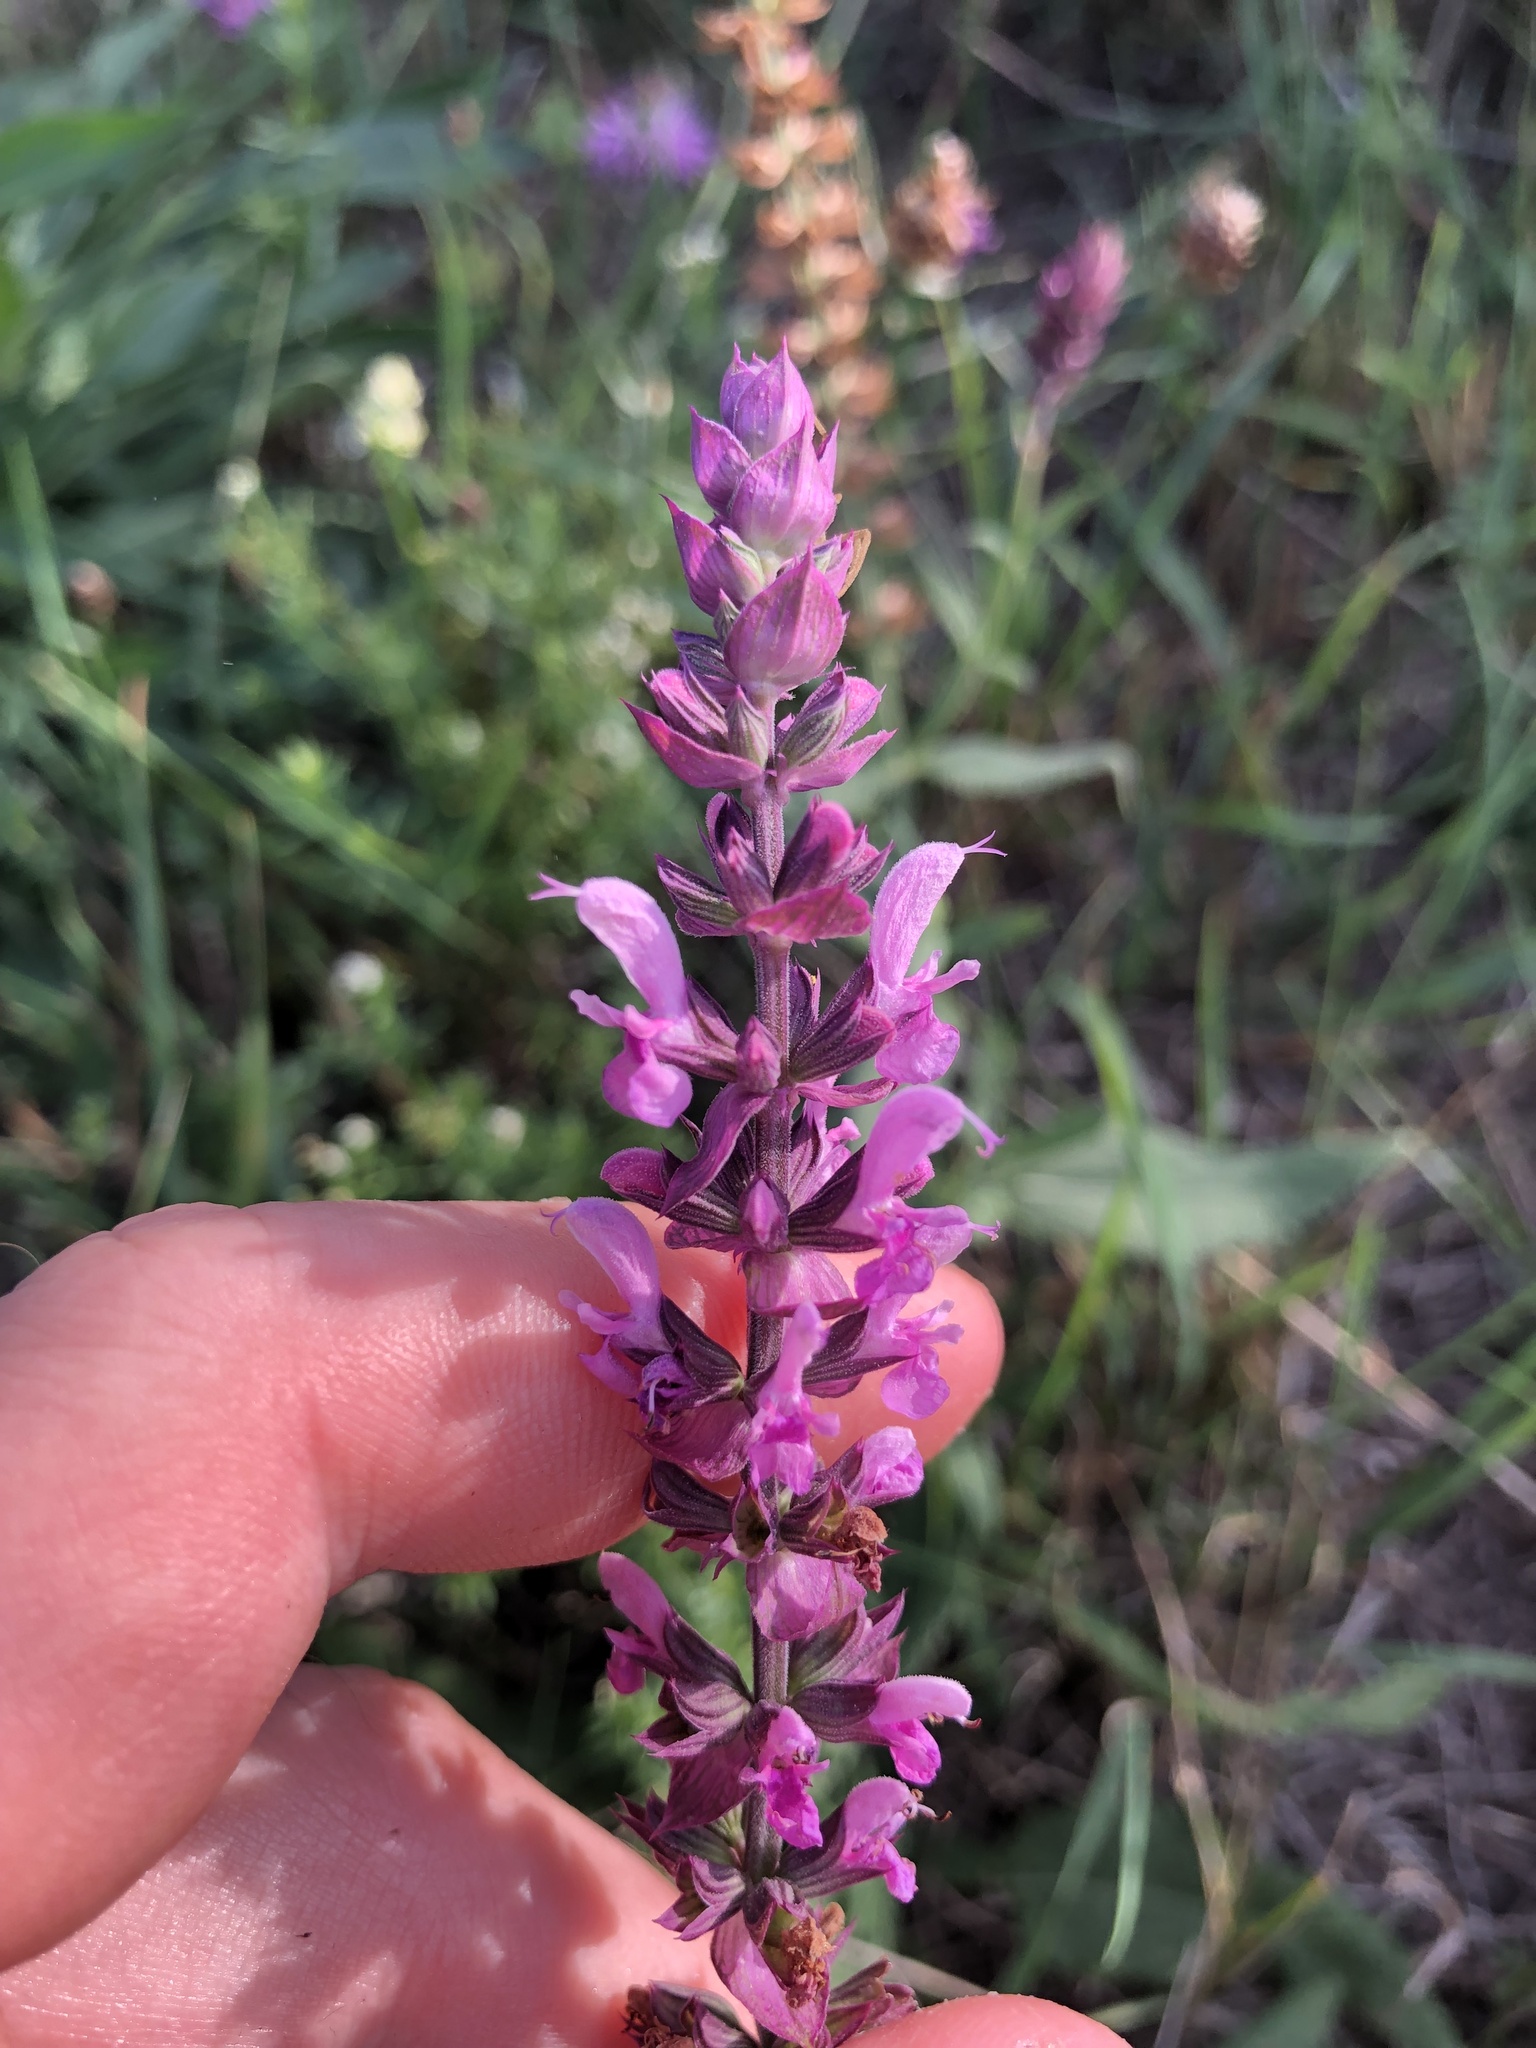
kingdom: Plantae
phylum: Tracheophyta
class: Magnoliopsida
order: Lamiales
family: Lamiaceae
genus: Salvia
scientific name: Salvia nemorosa
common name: Balkan clary
